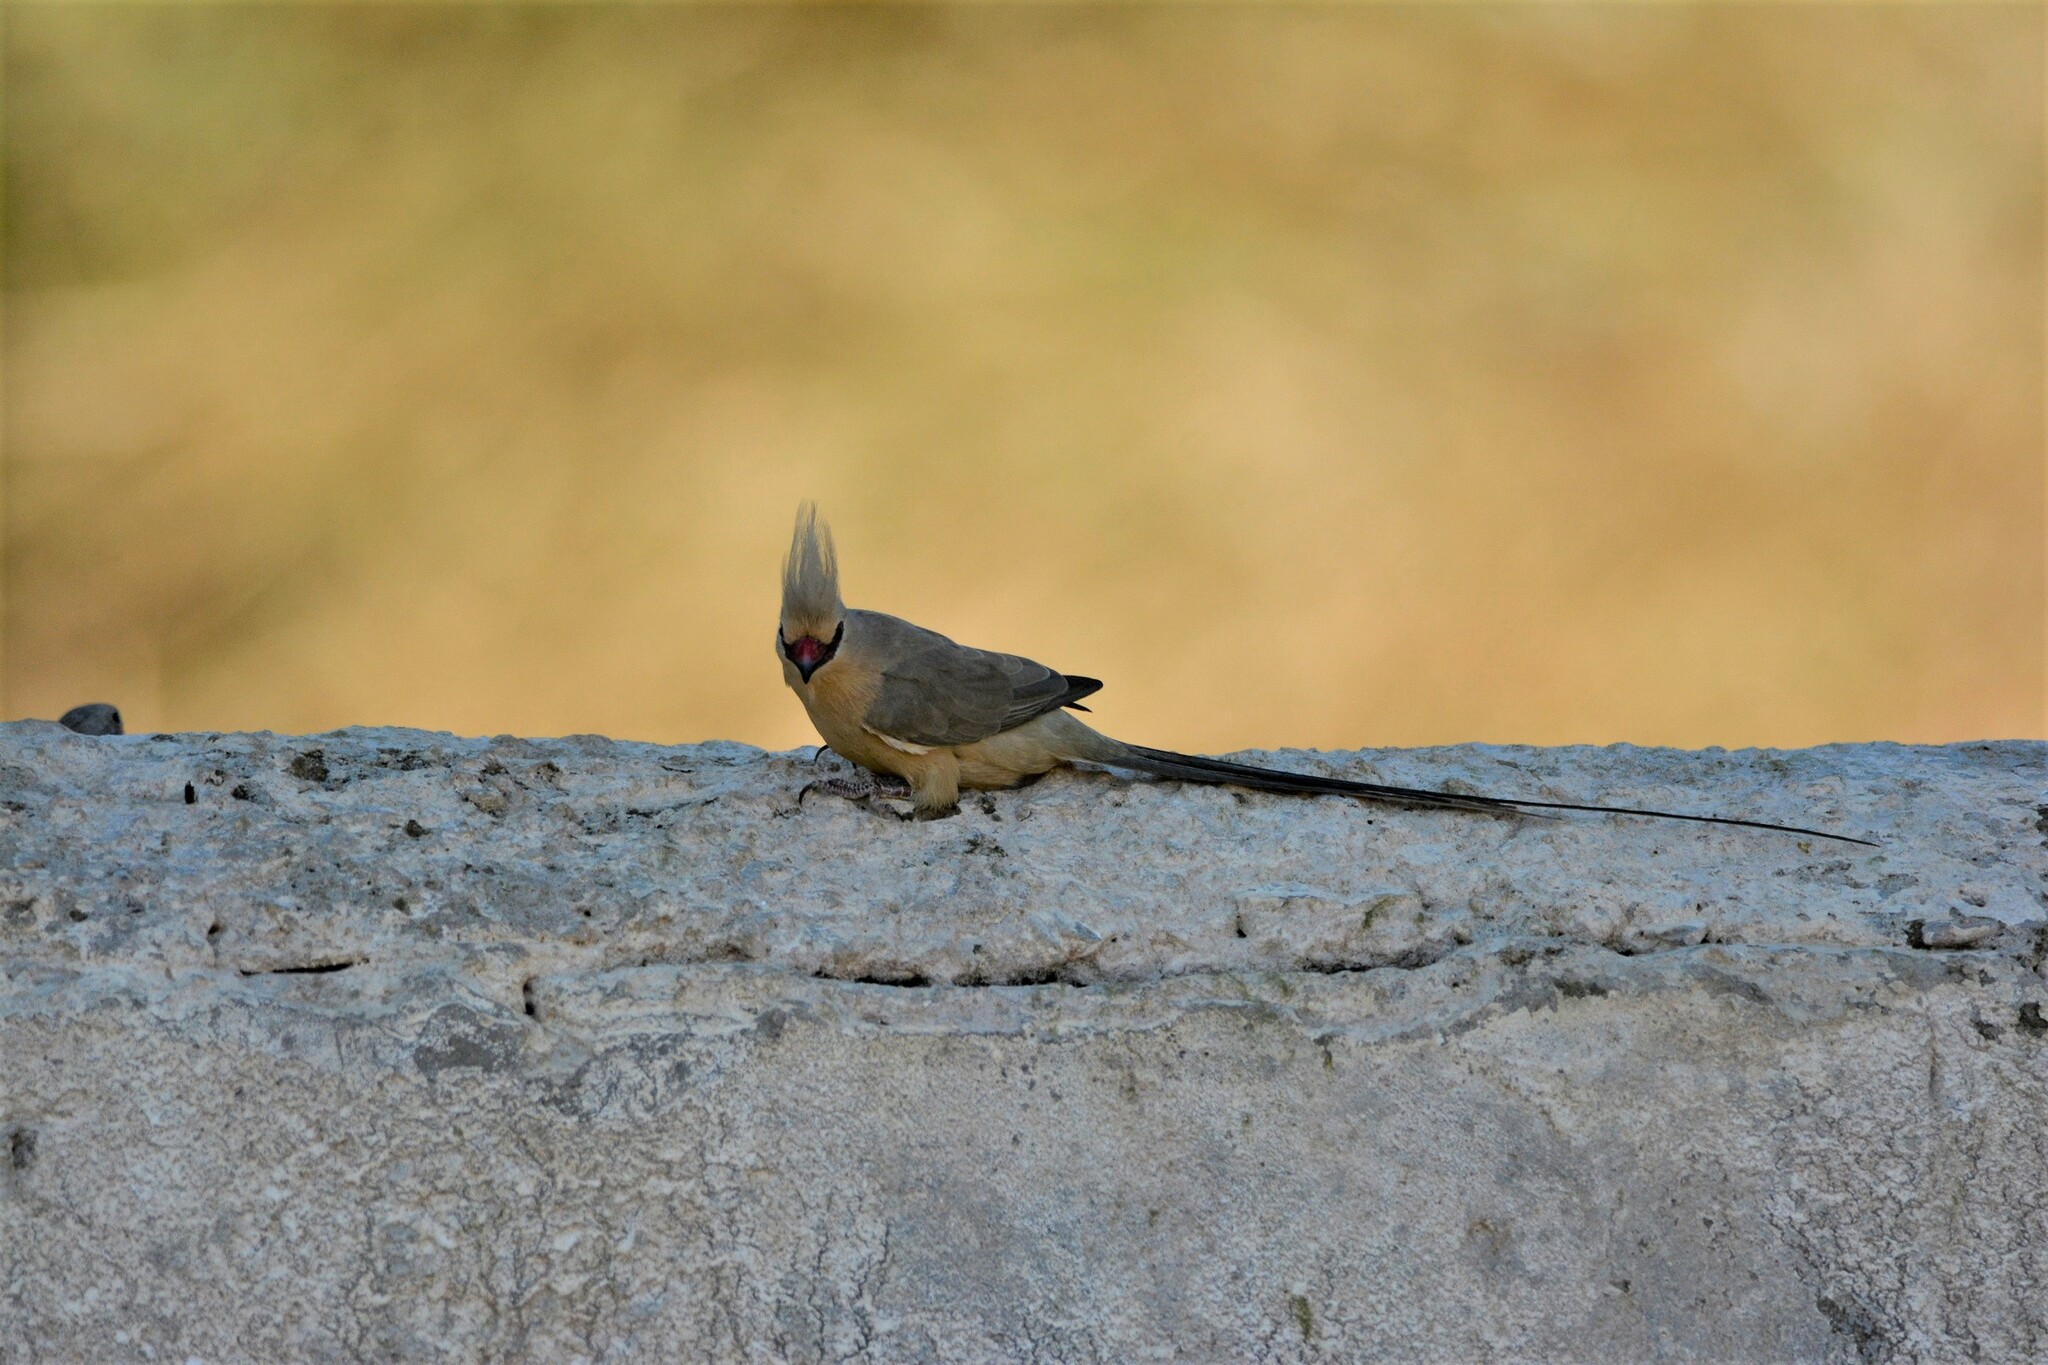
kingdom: Animalia
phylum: Chordata
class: Aves
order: Coliiformes
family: Coliidae
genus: Urocolius
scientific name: Urocolius macrourus
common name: Blue-naped mousebird
